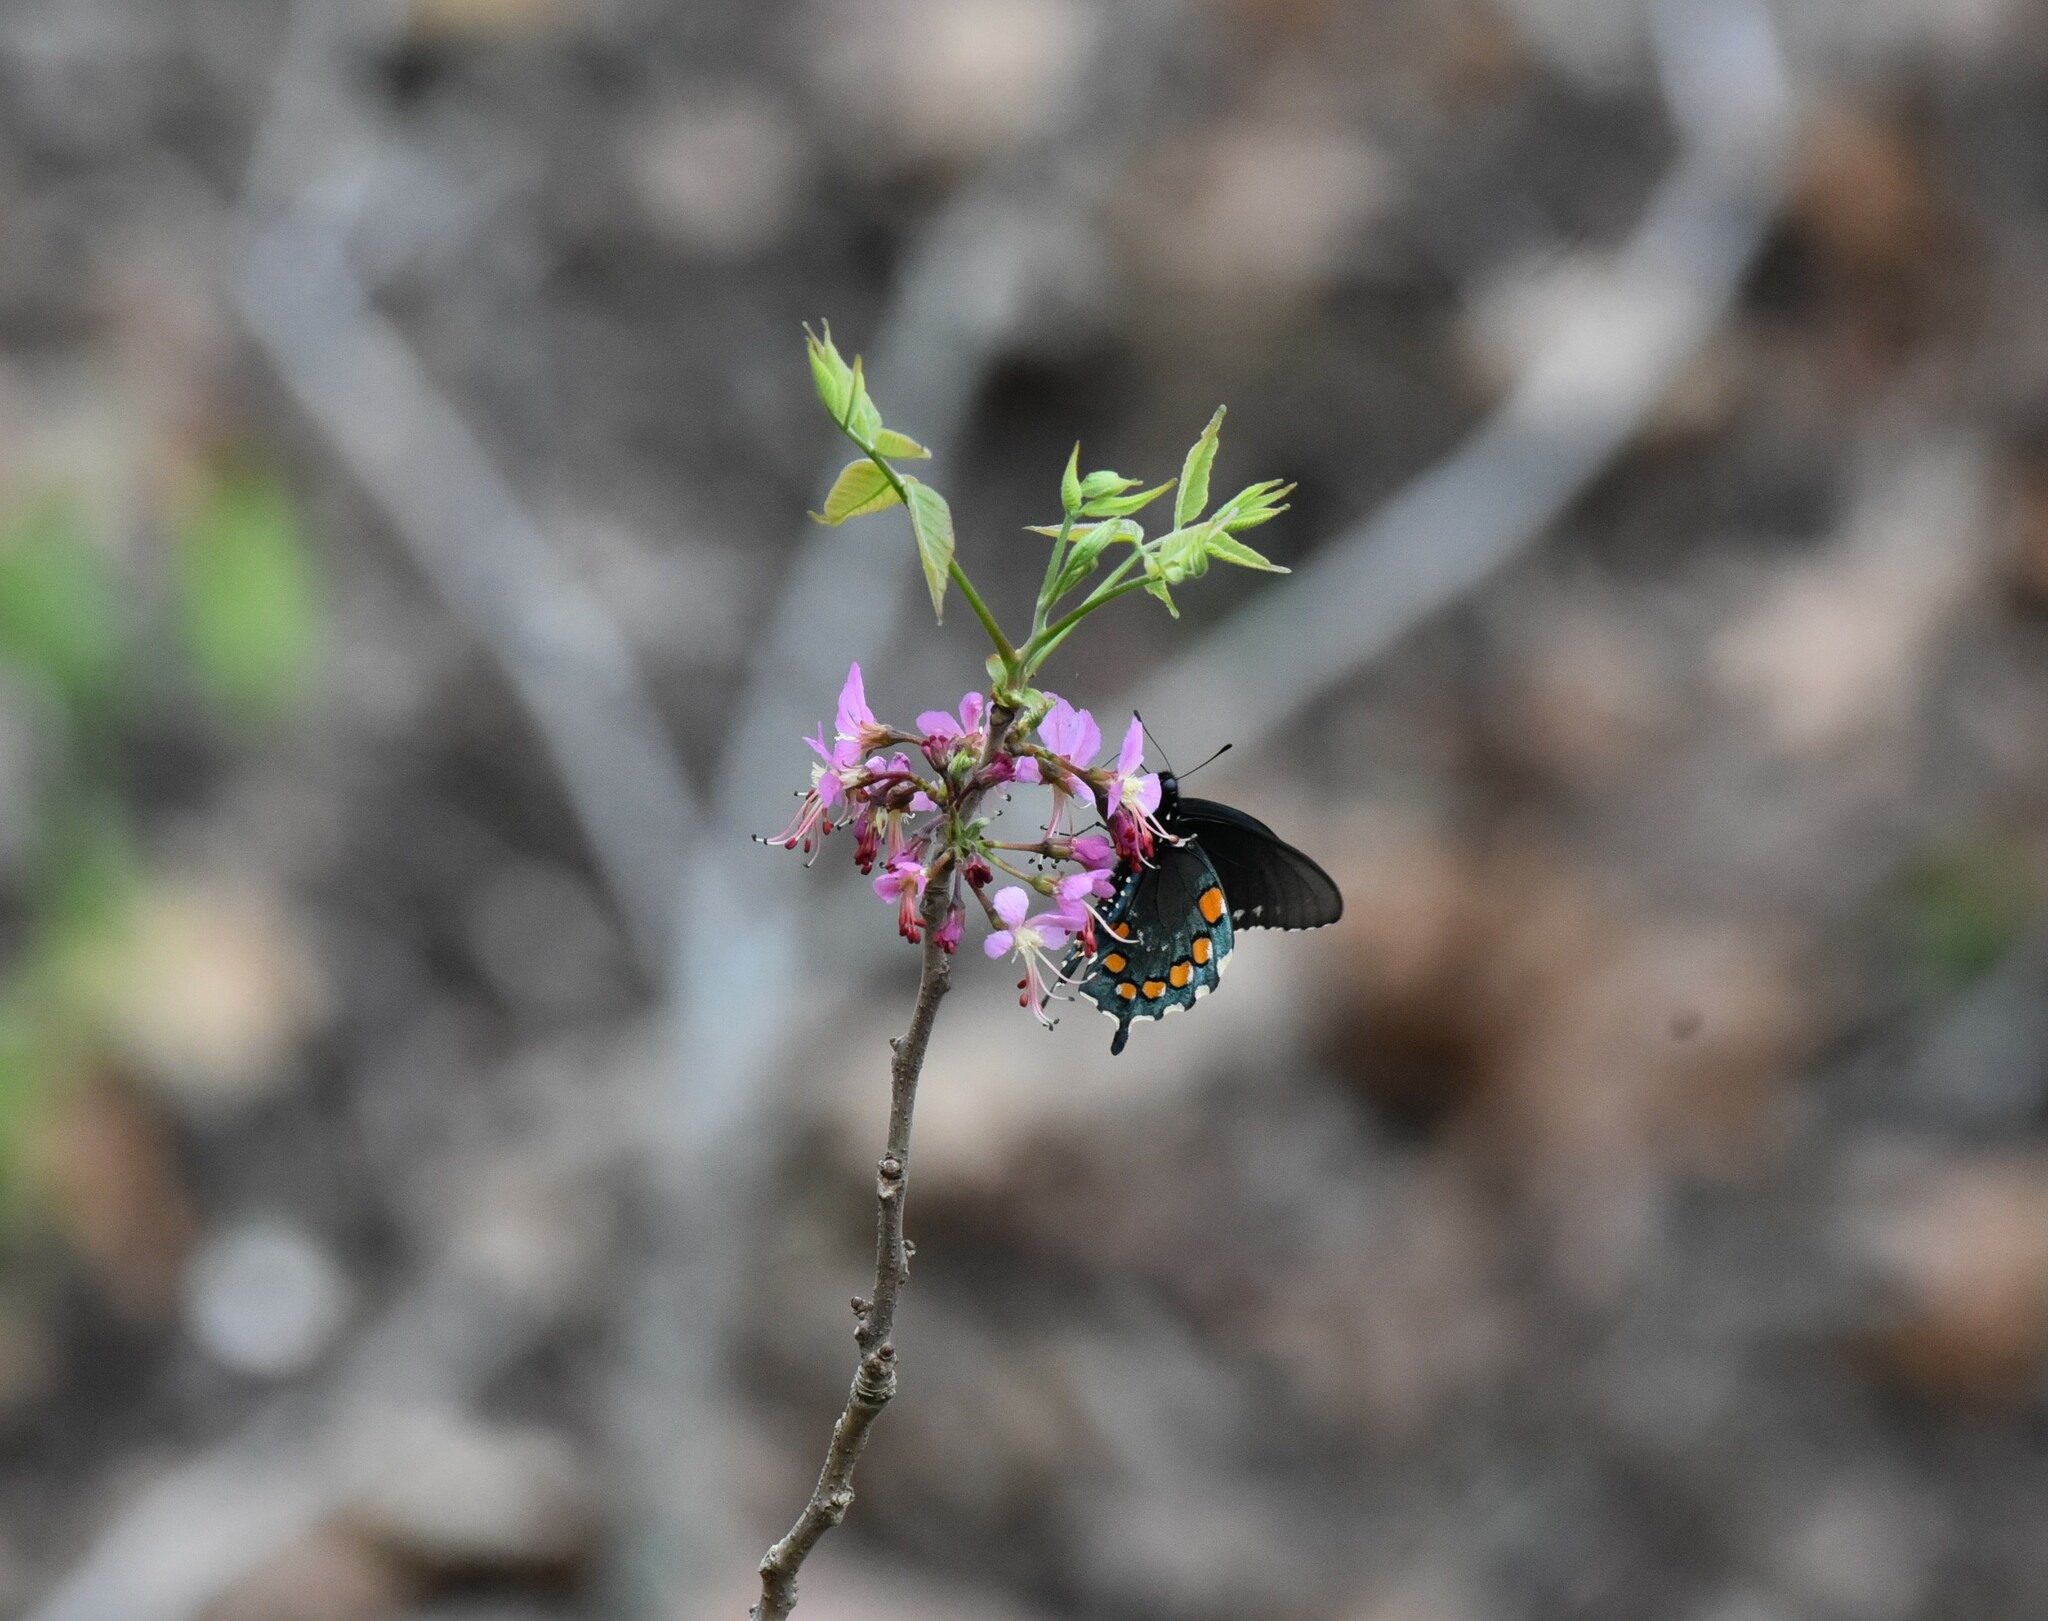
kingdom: Animalia
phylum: Arthropoda
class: Insecta
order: Lepidoptera
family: Papilionidae
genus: Battus
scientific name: Battus philenor
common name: Pipevine swallowtail
